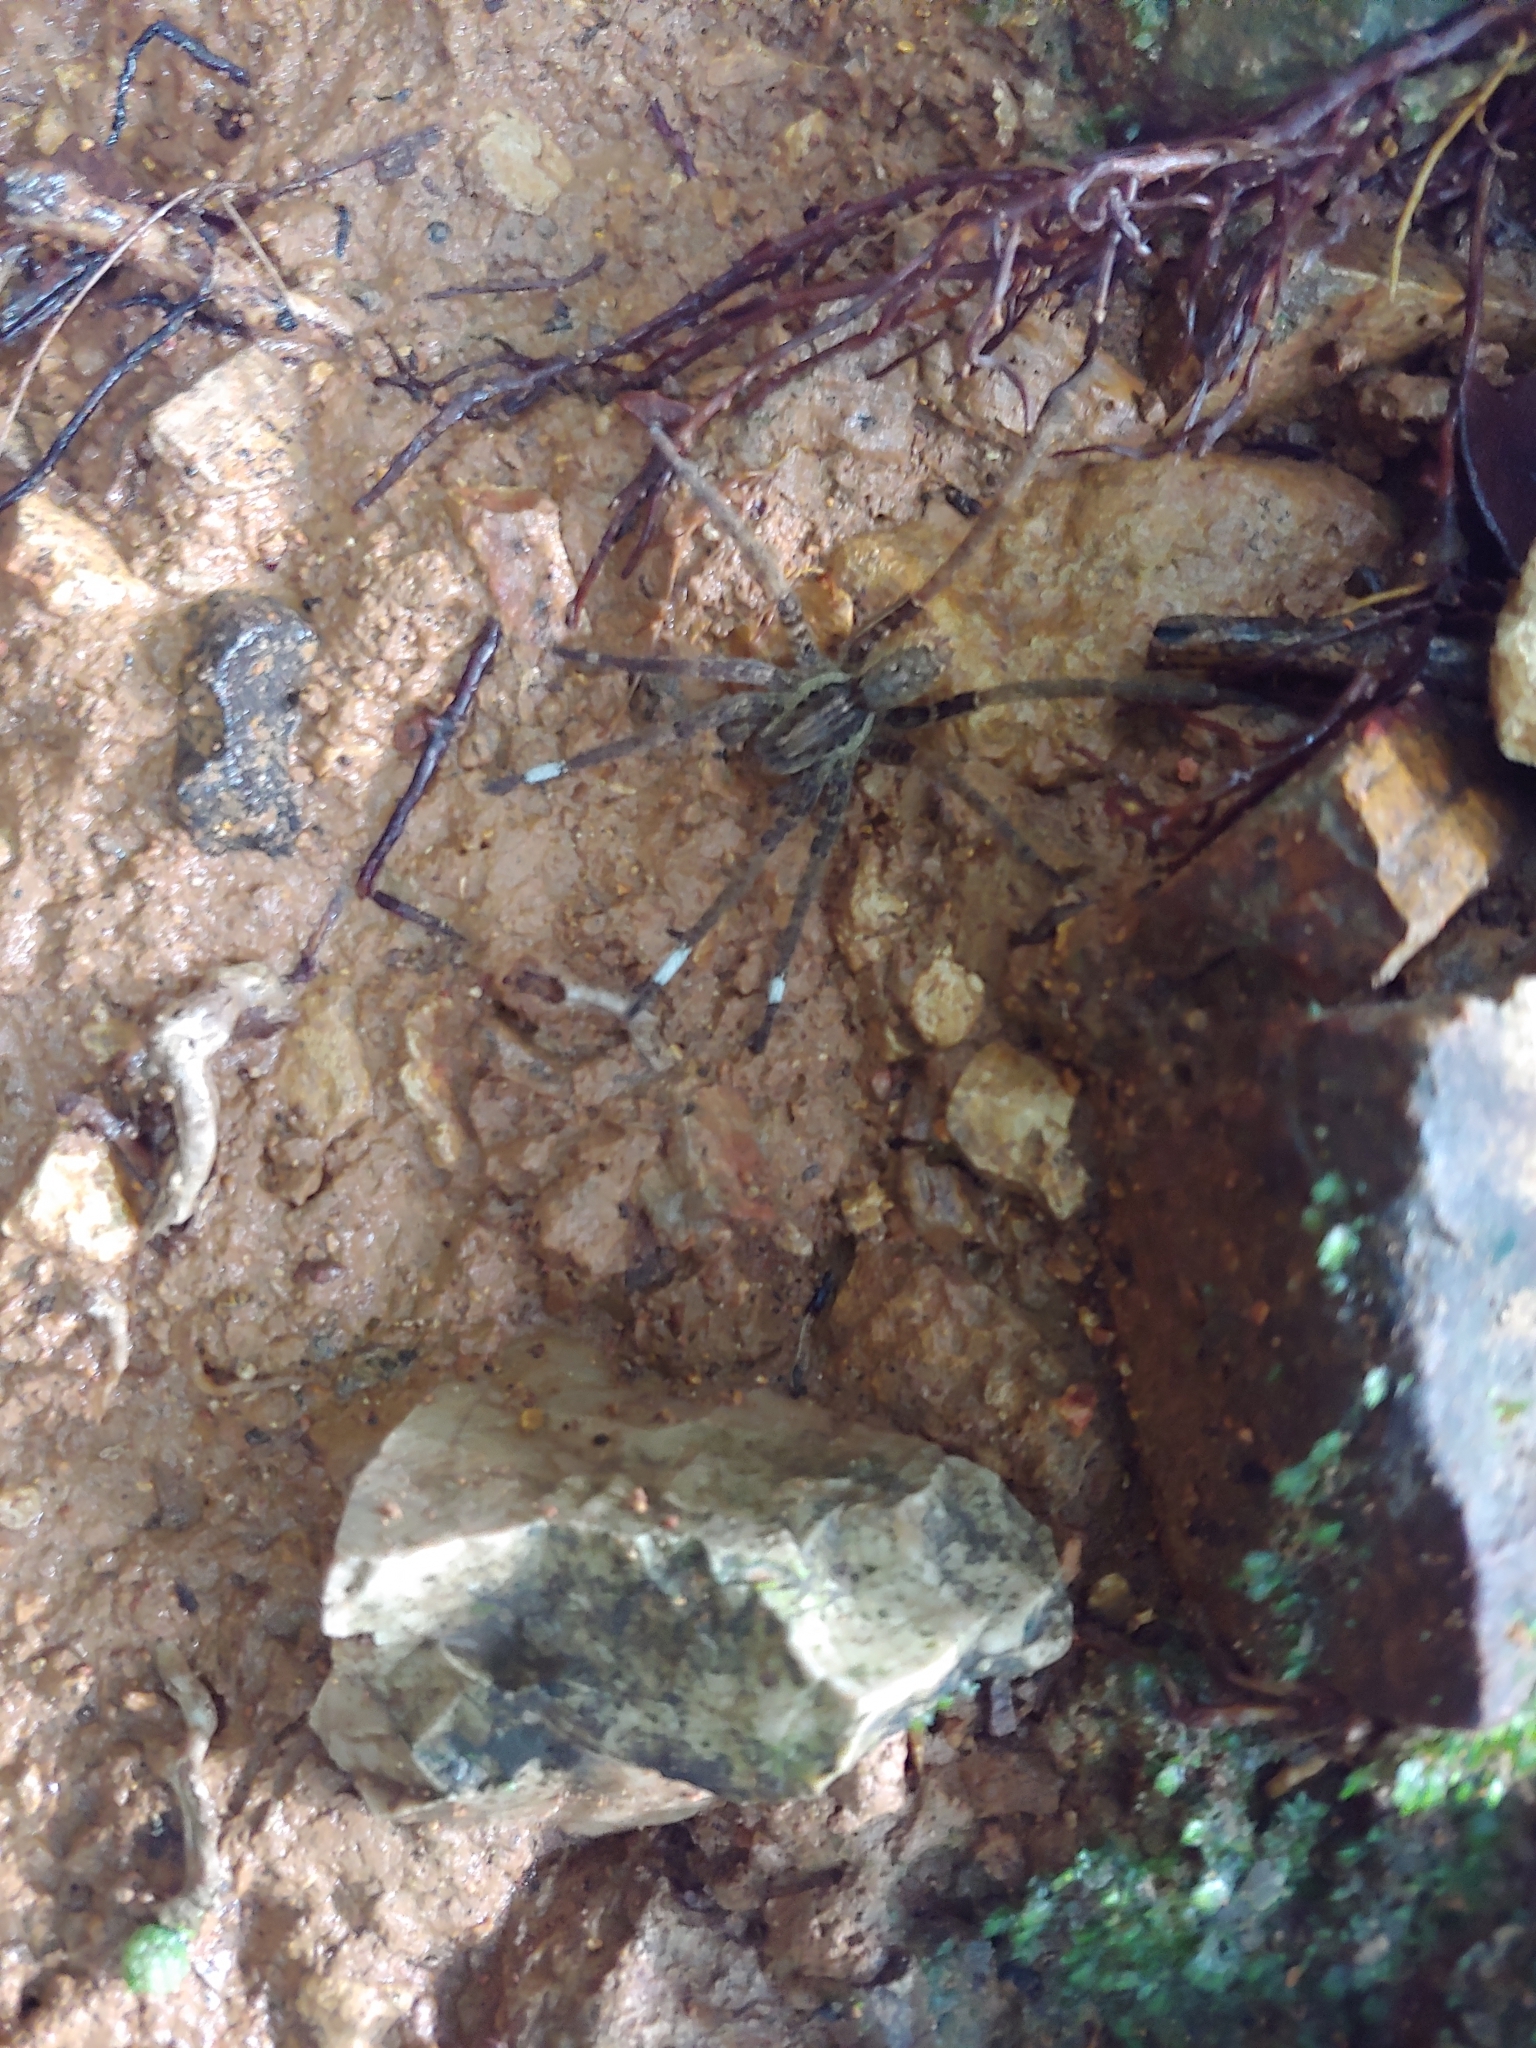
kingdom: Animalia
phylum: Arthropoda
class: Arachnida
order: Araneae
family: Ctenidae
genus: Ancylometes
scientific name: Ancylometes bogotensis
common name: Wandering spiders
